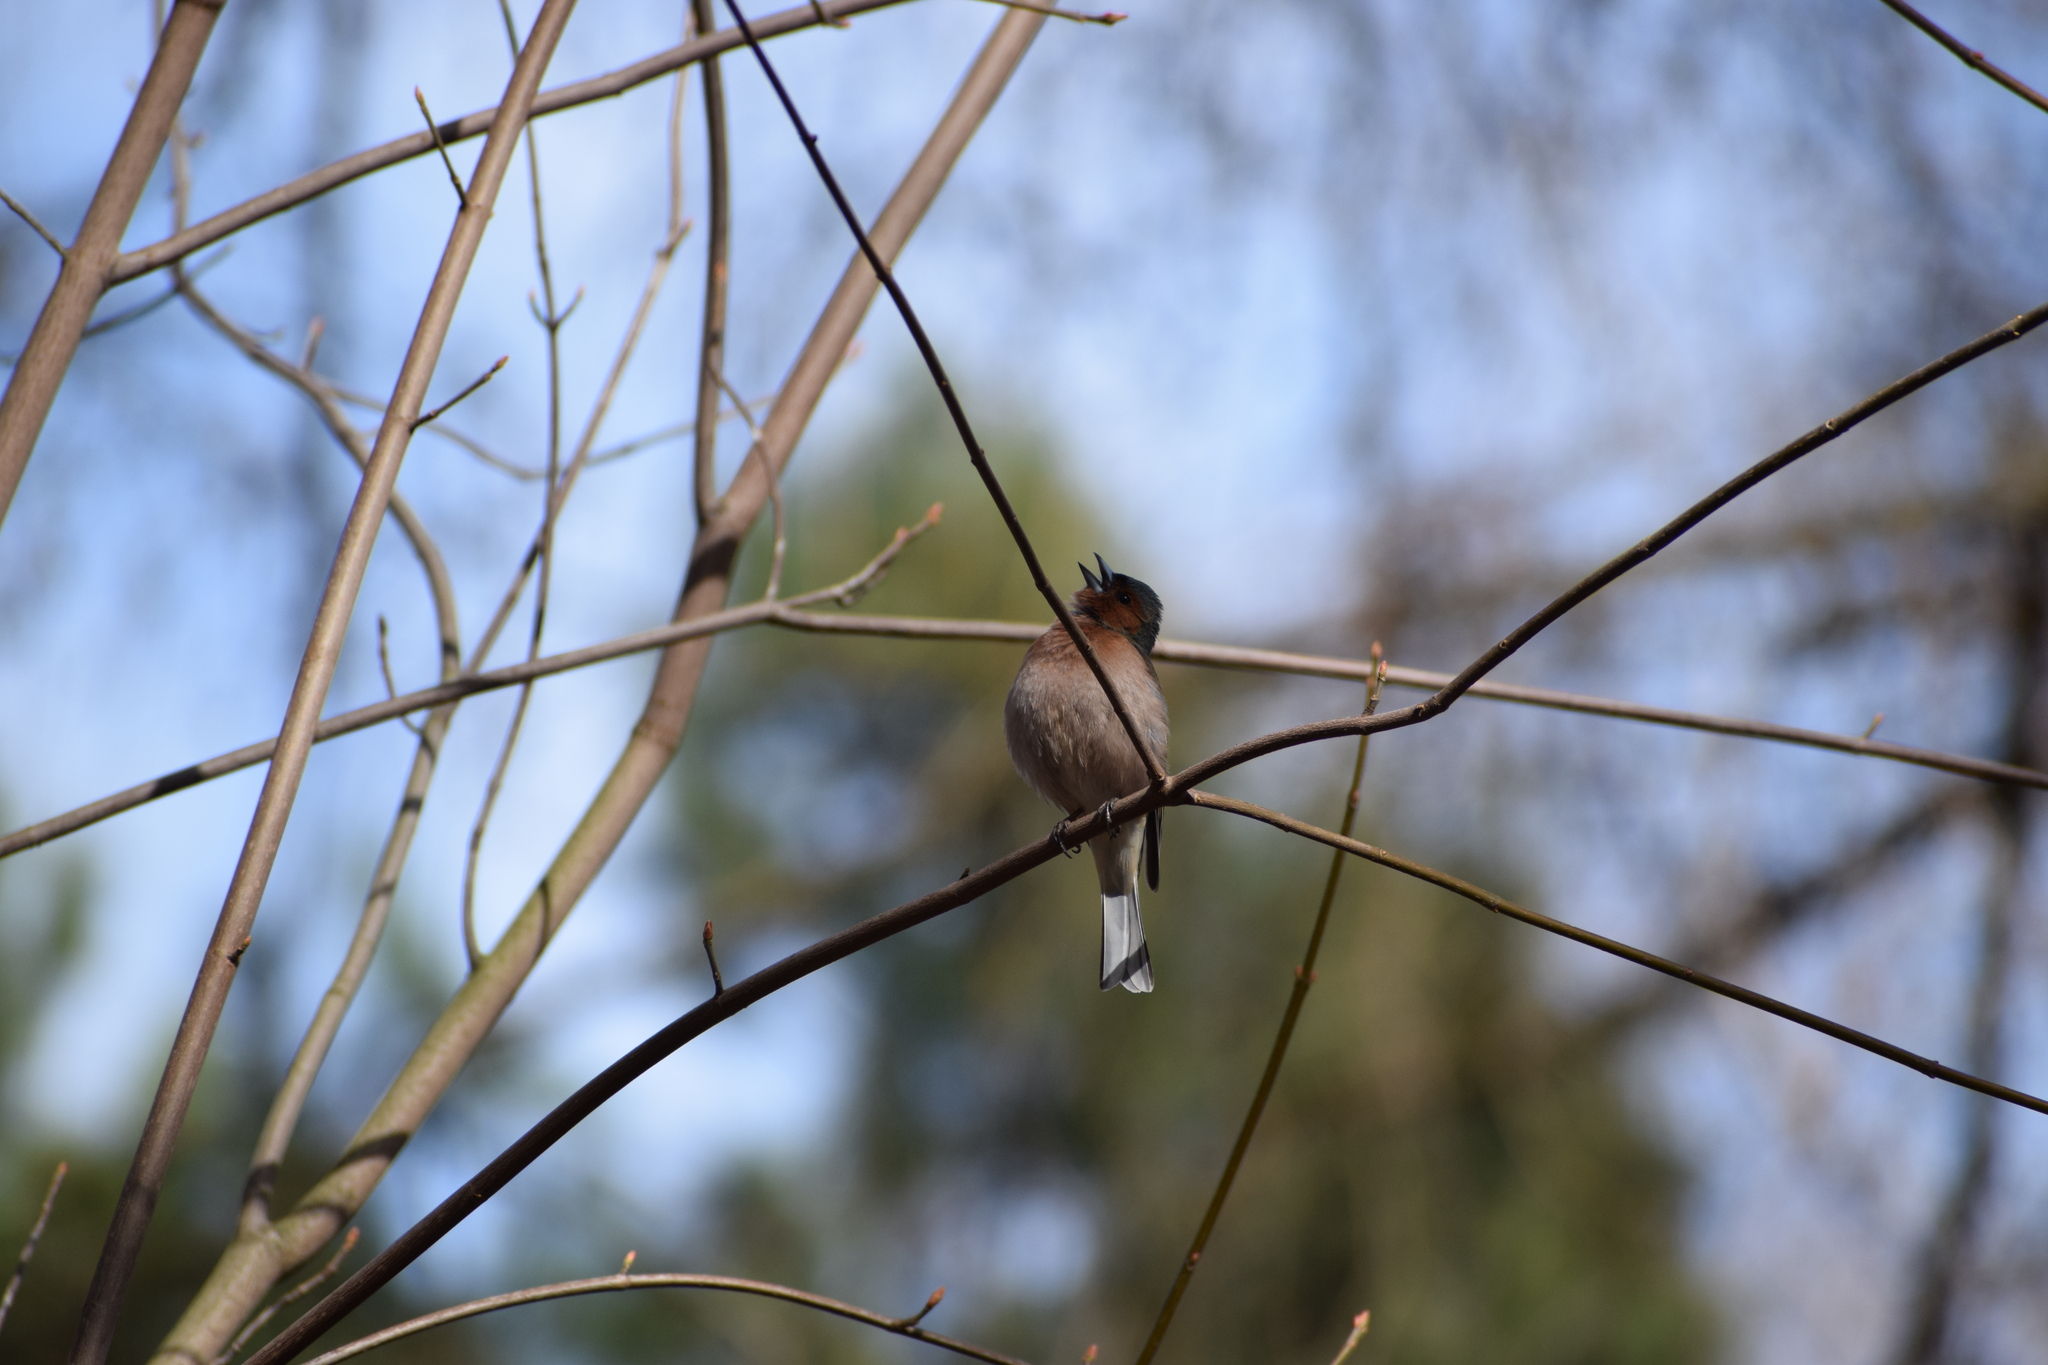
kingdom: Animalia
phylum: Chordata
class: Aves
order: Passeriformes
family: Fringillidae
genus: Fringilla
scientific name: Fringilla coelebs
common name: Common chaffinch
